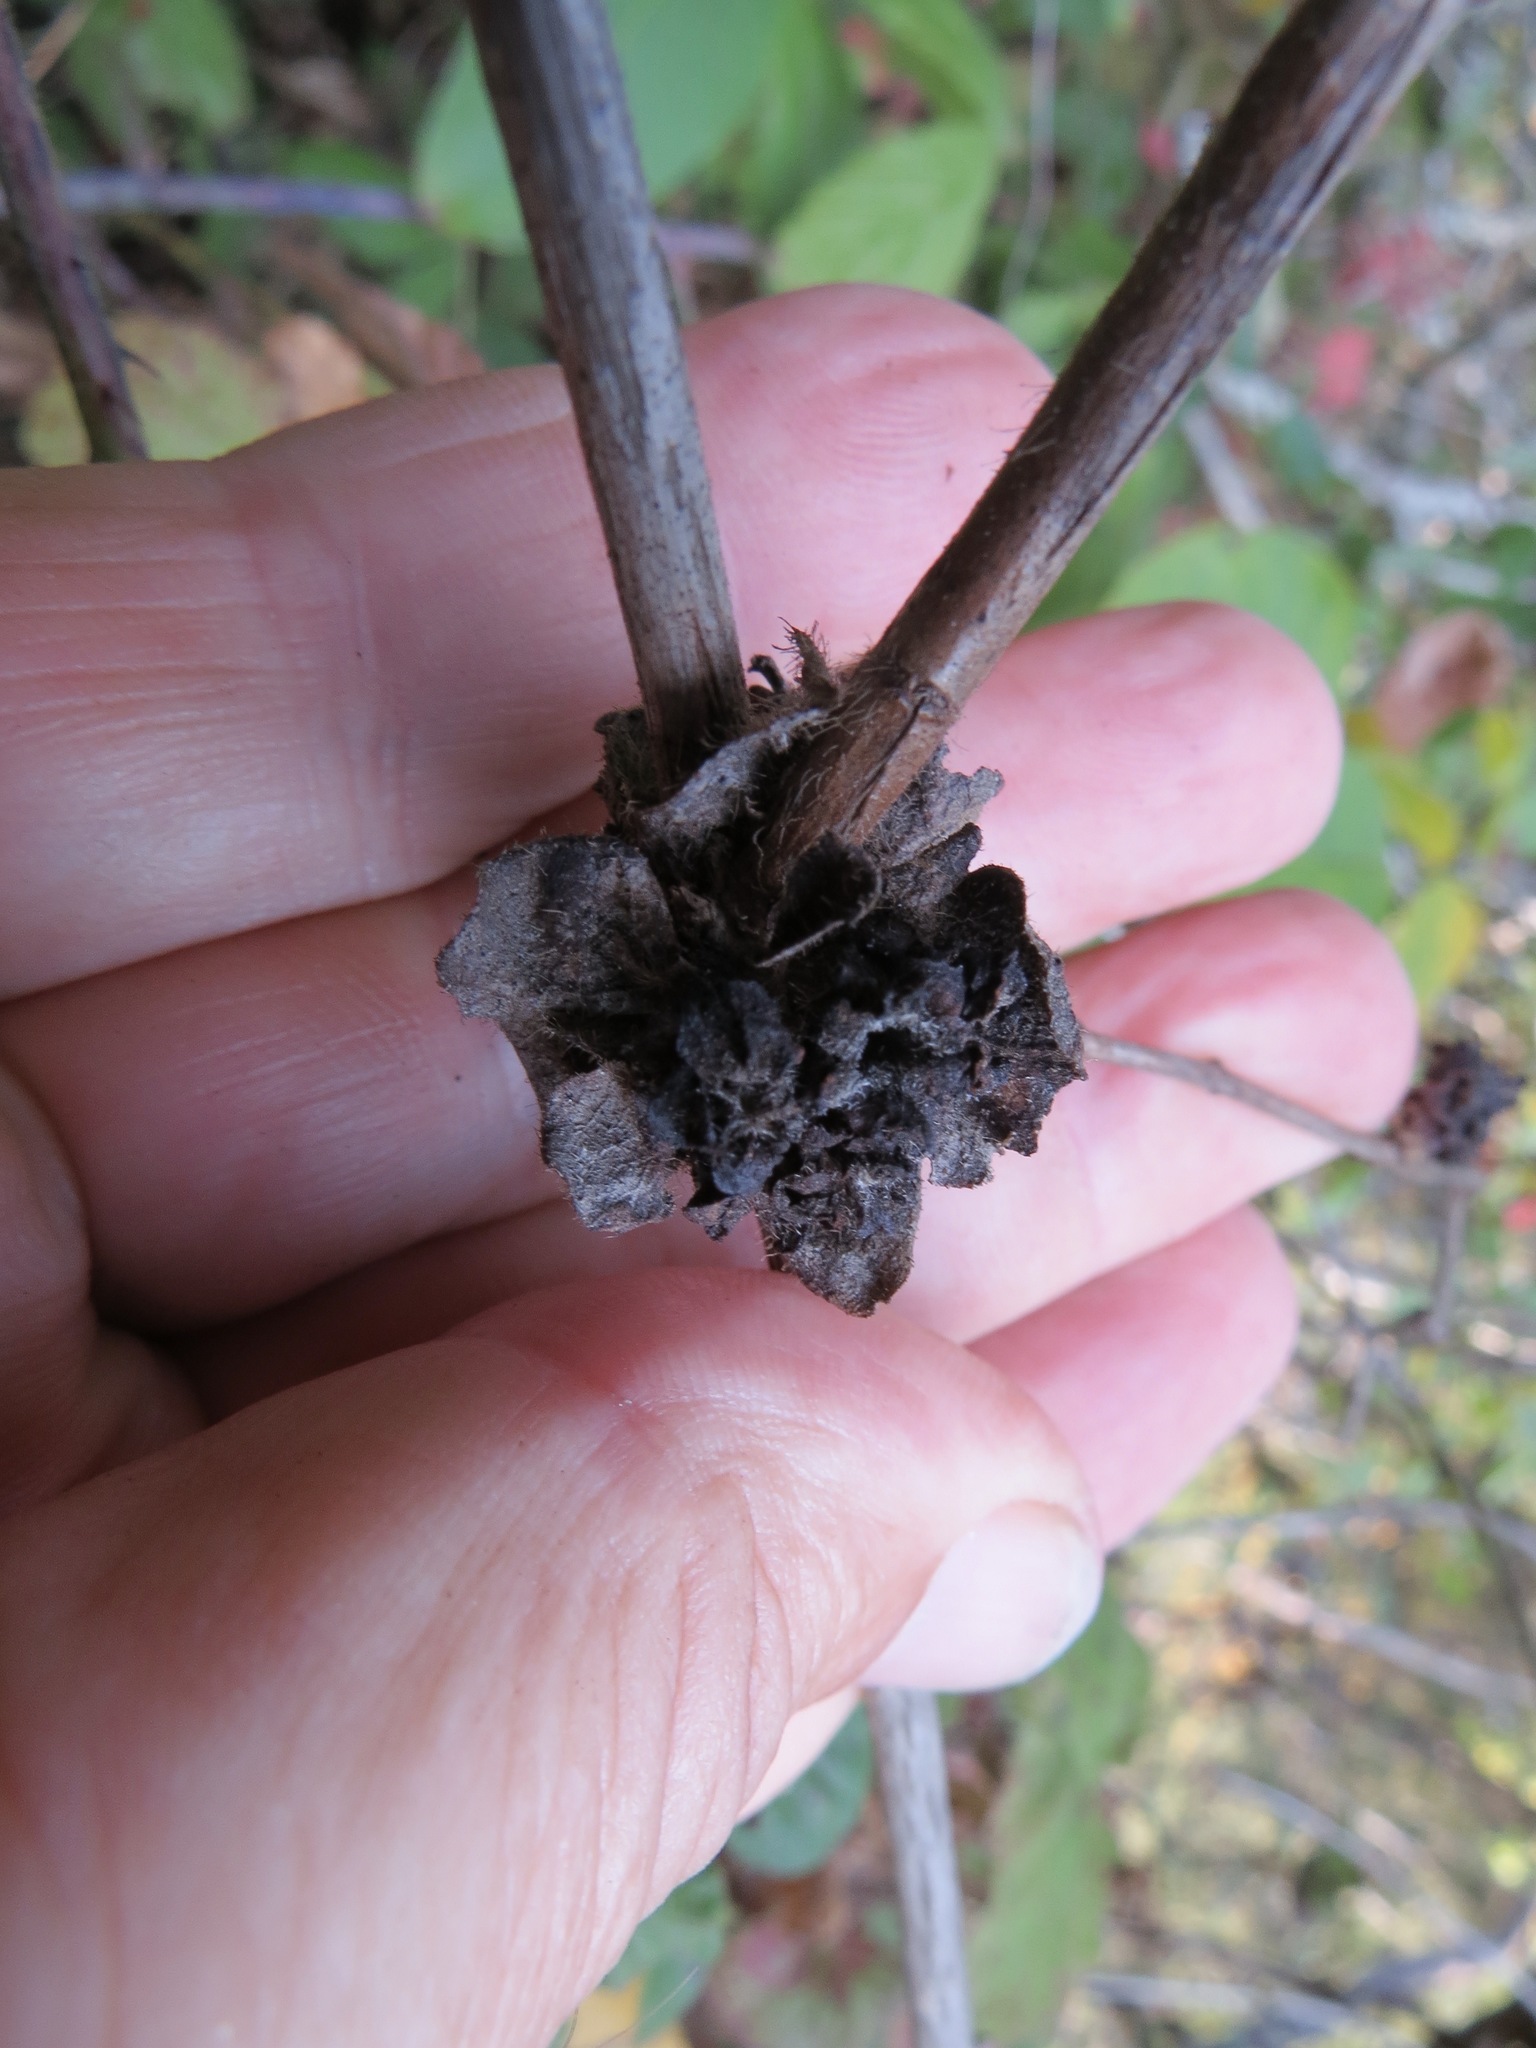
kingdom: Animalia
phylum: Arthropoda
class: Insecta
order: Diptera
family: Cecidomyiidae
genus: Lonicerae
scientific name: Lonicerae russoi
